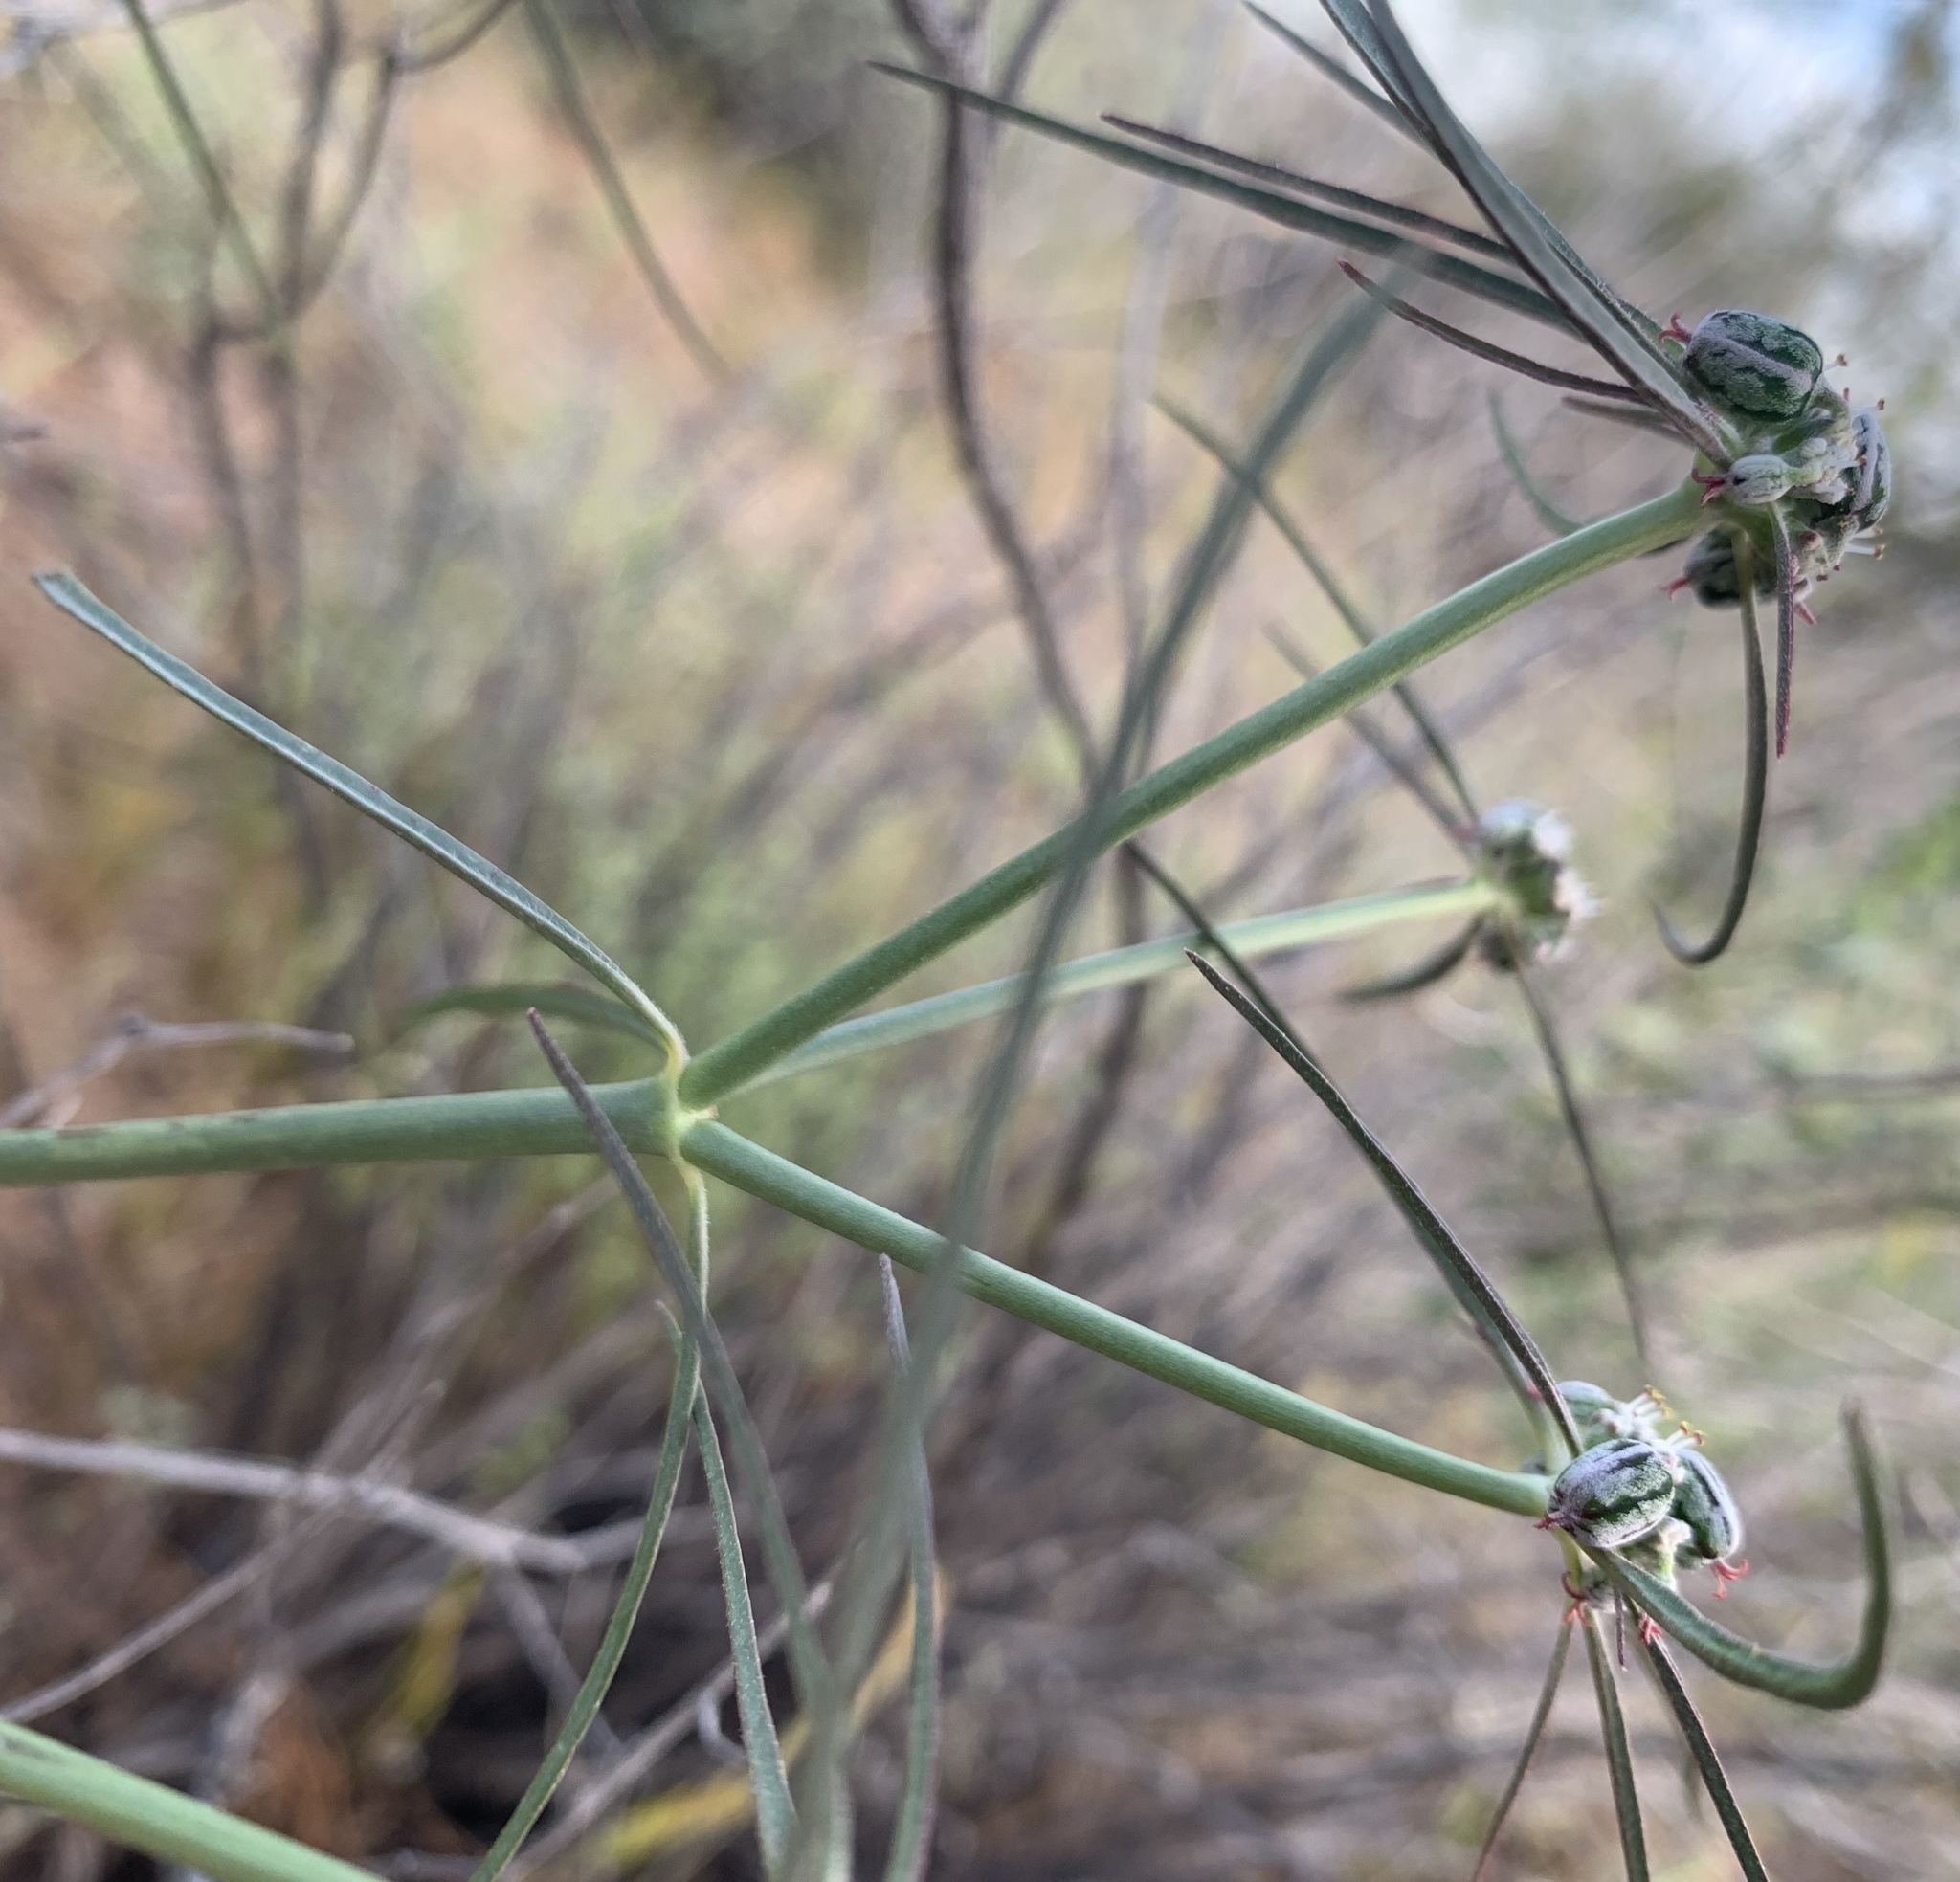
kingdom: Plantae
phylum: Tracheophyta
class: Magnoliopsida
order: Malpighiales
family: Euphorbiaceae
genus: Euphorbia
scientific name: Euphorbia eriantha
